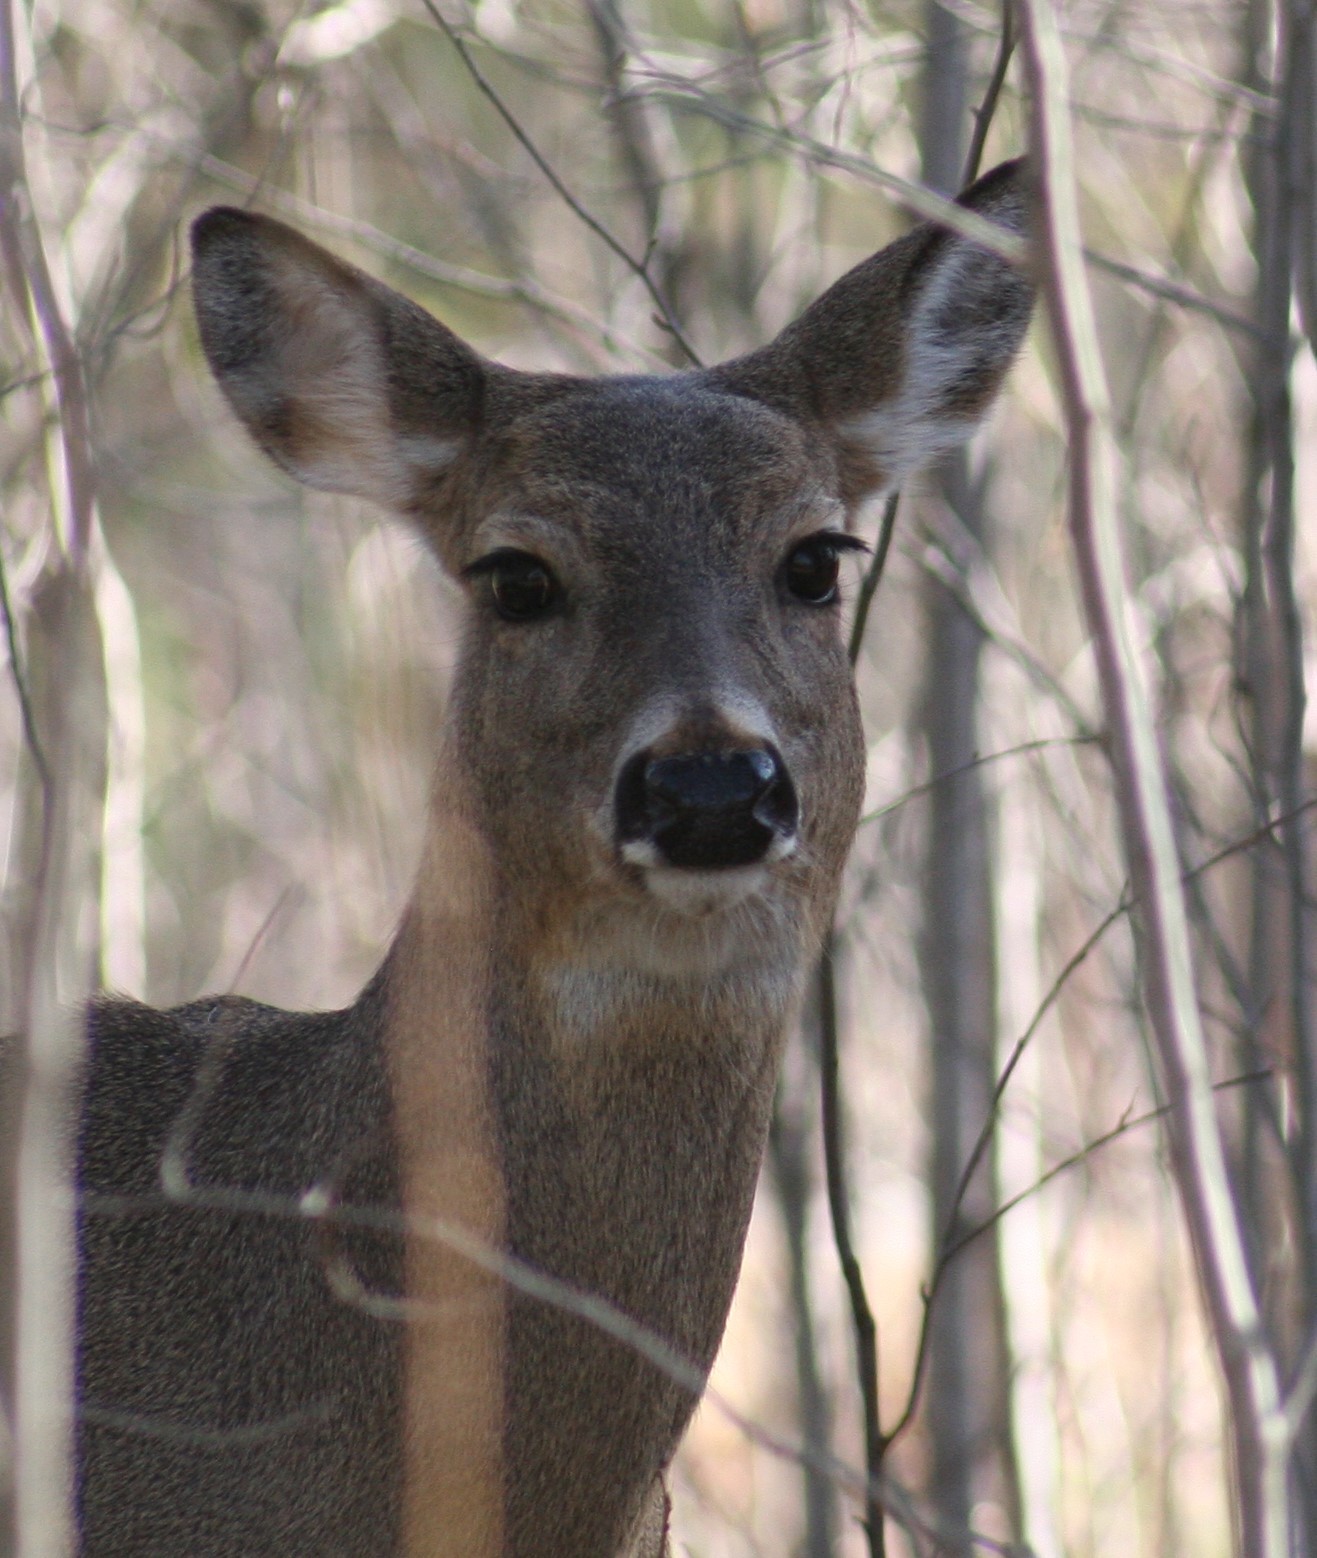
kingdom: Animalia
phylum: Chordata
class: Mammalia
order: Artiodactyla
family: Cervidae
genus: Odocoileus
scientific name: Odocoileus virginianus
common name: White-tailed deer
